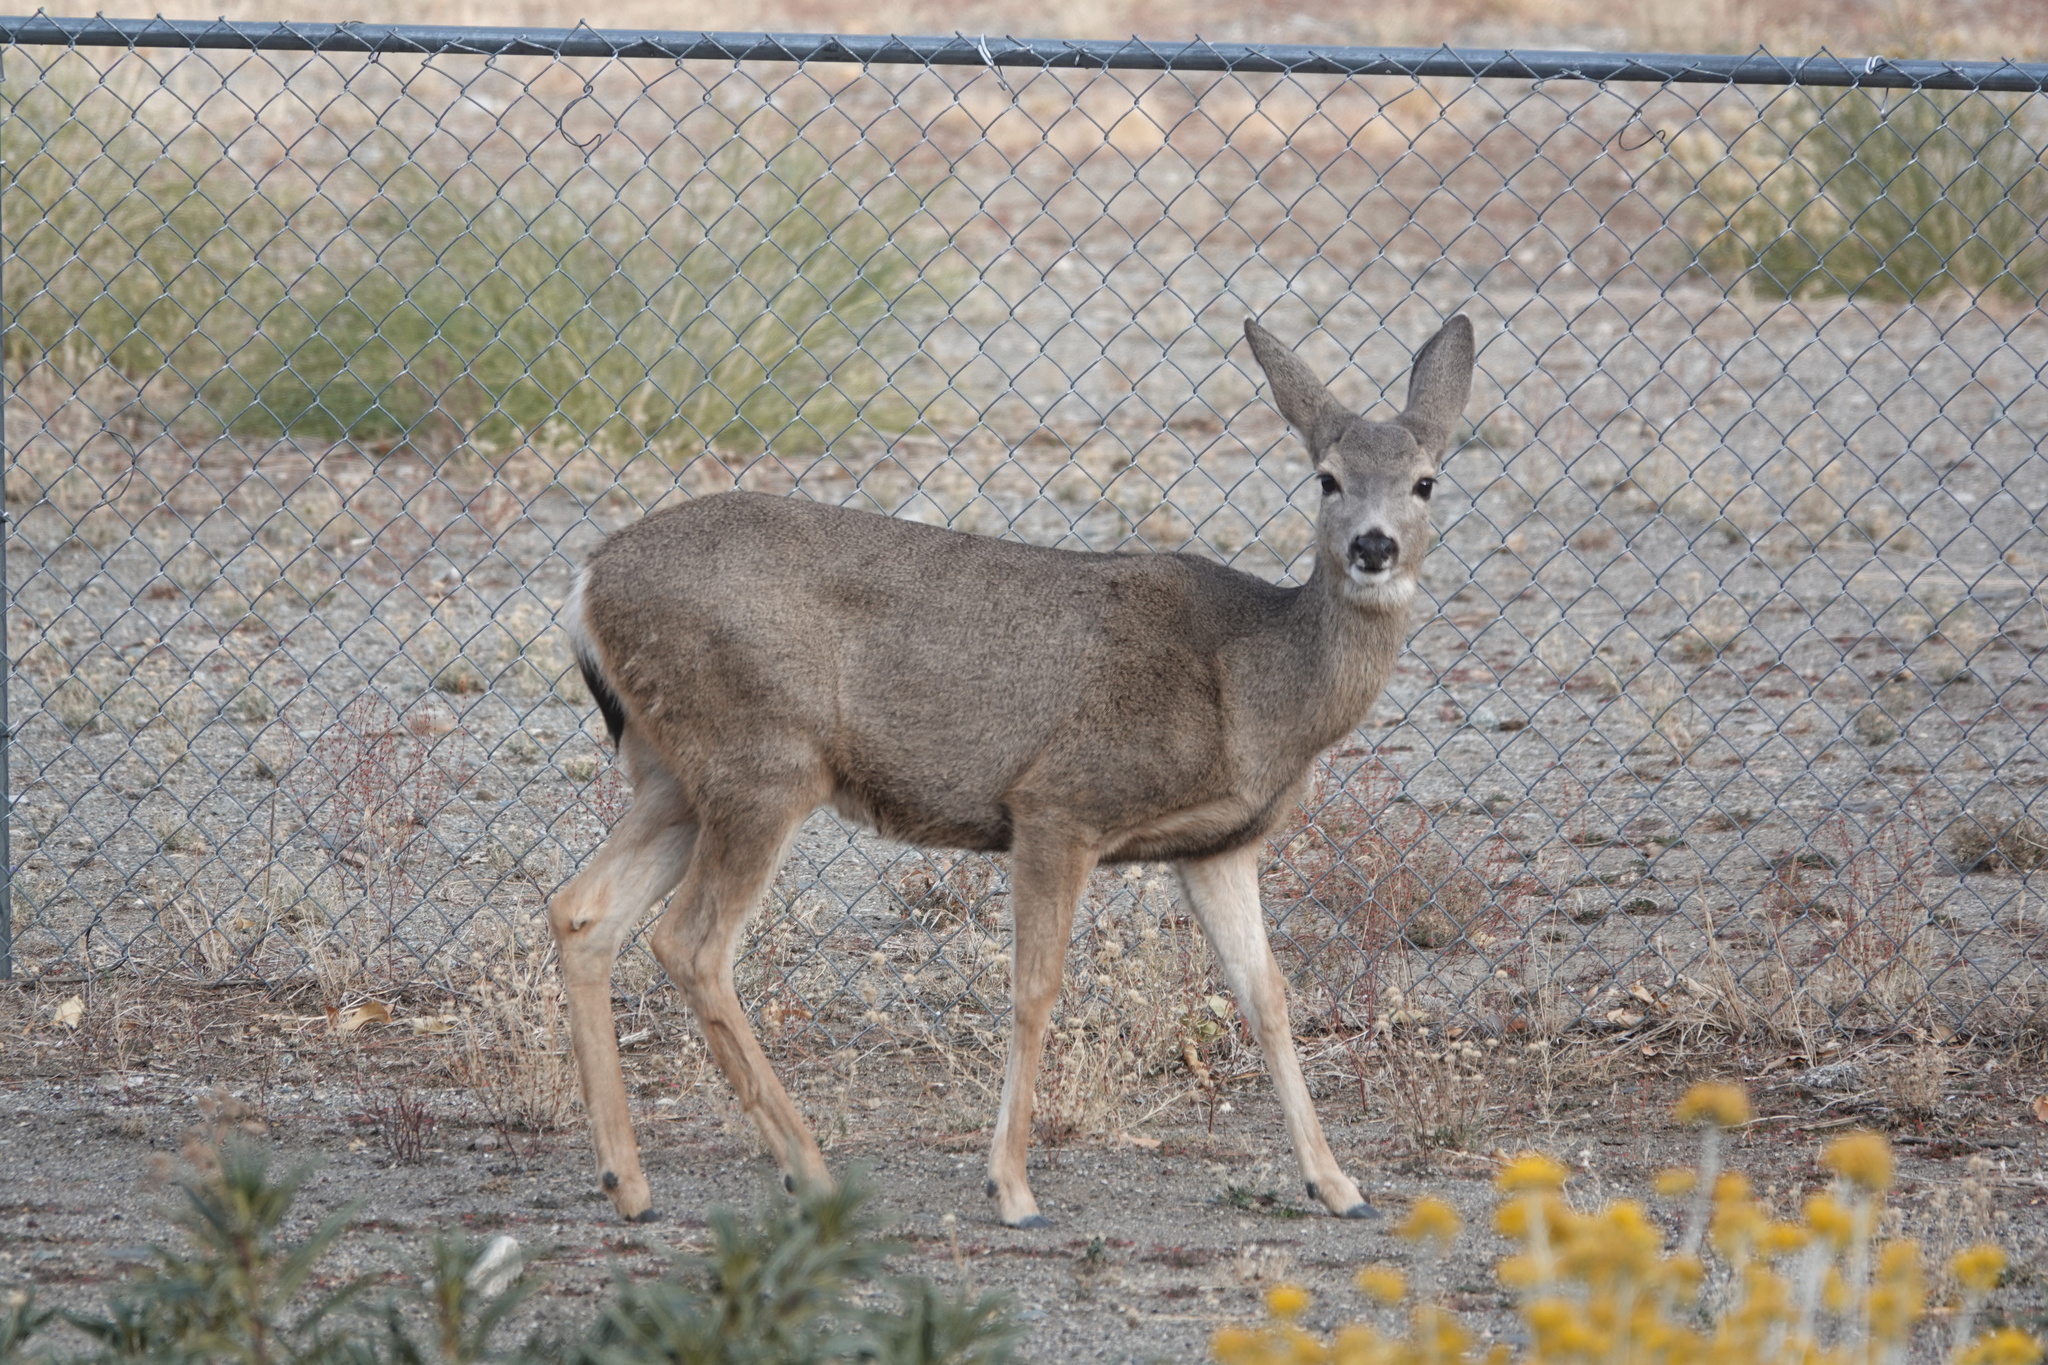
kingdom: Animalia
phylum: Chordata
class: Mammalia
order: Artiodactyla
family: Cervidae
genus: Odocoileus
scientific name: Odocoileus hemionus
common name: Mule deer
